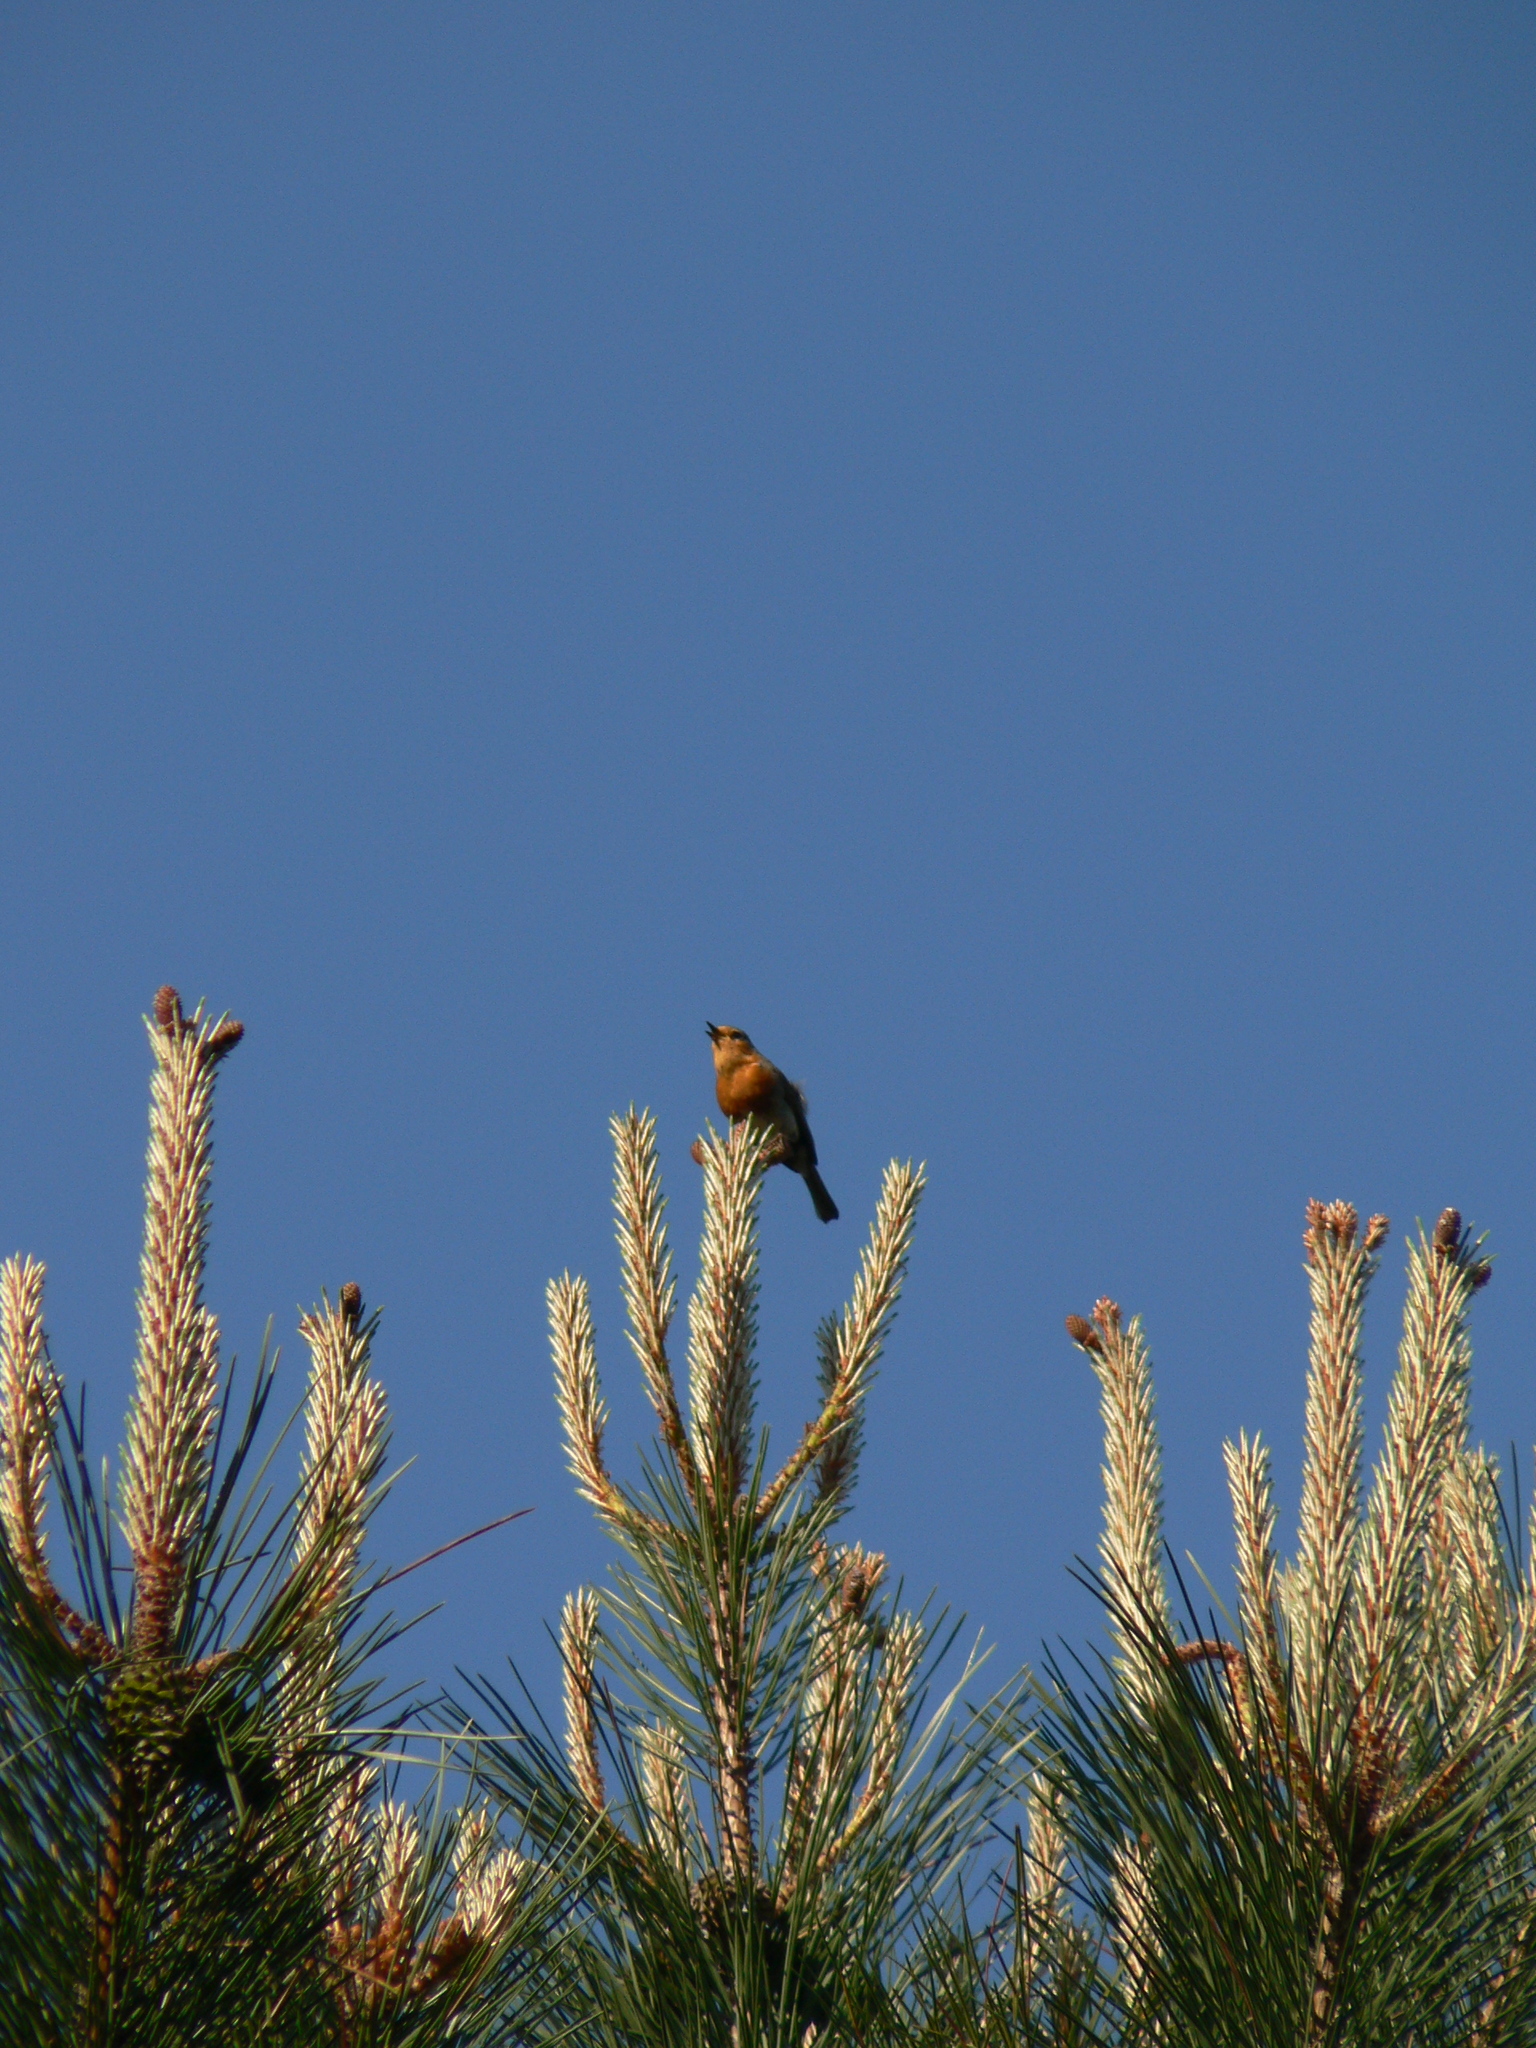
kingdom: Animalia
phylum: Chordata
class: Aves
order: Passeriformes
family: Muscicapidae
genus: Erithacus
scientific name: Erithacus rubecula
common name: European robin
